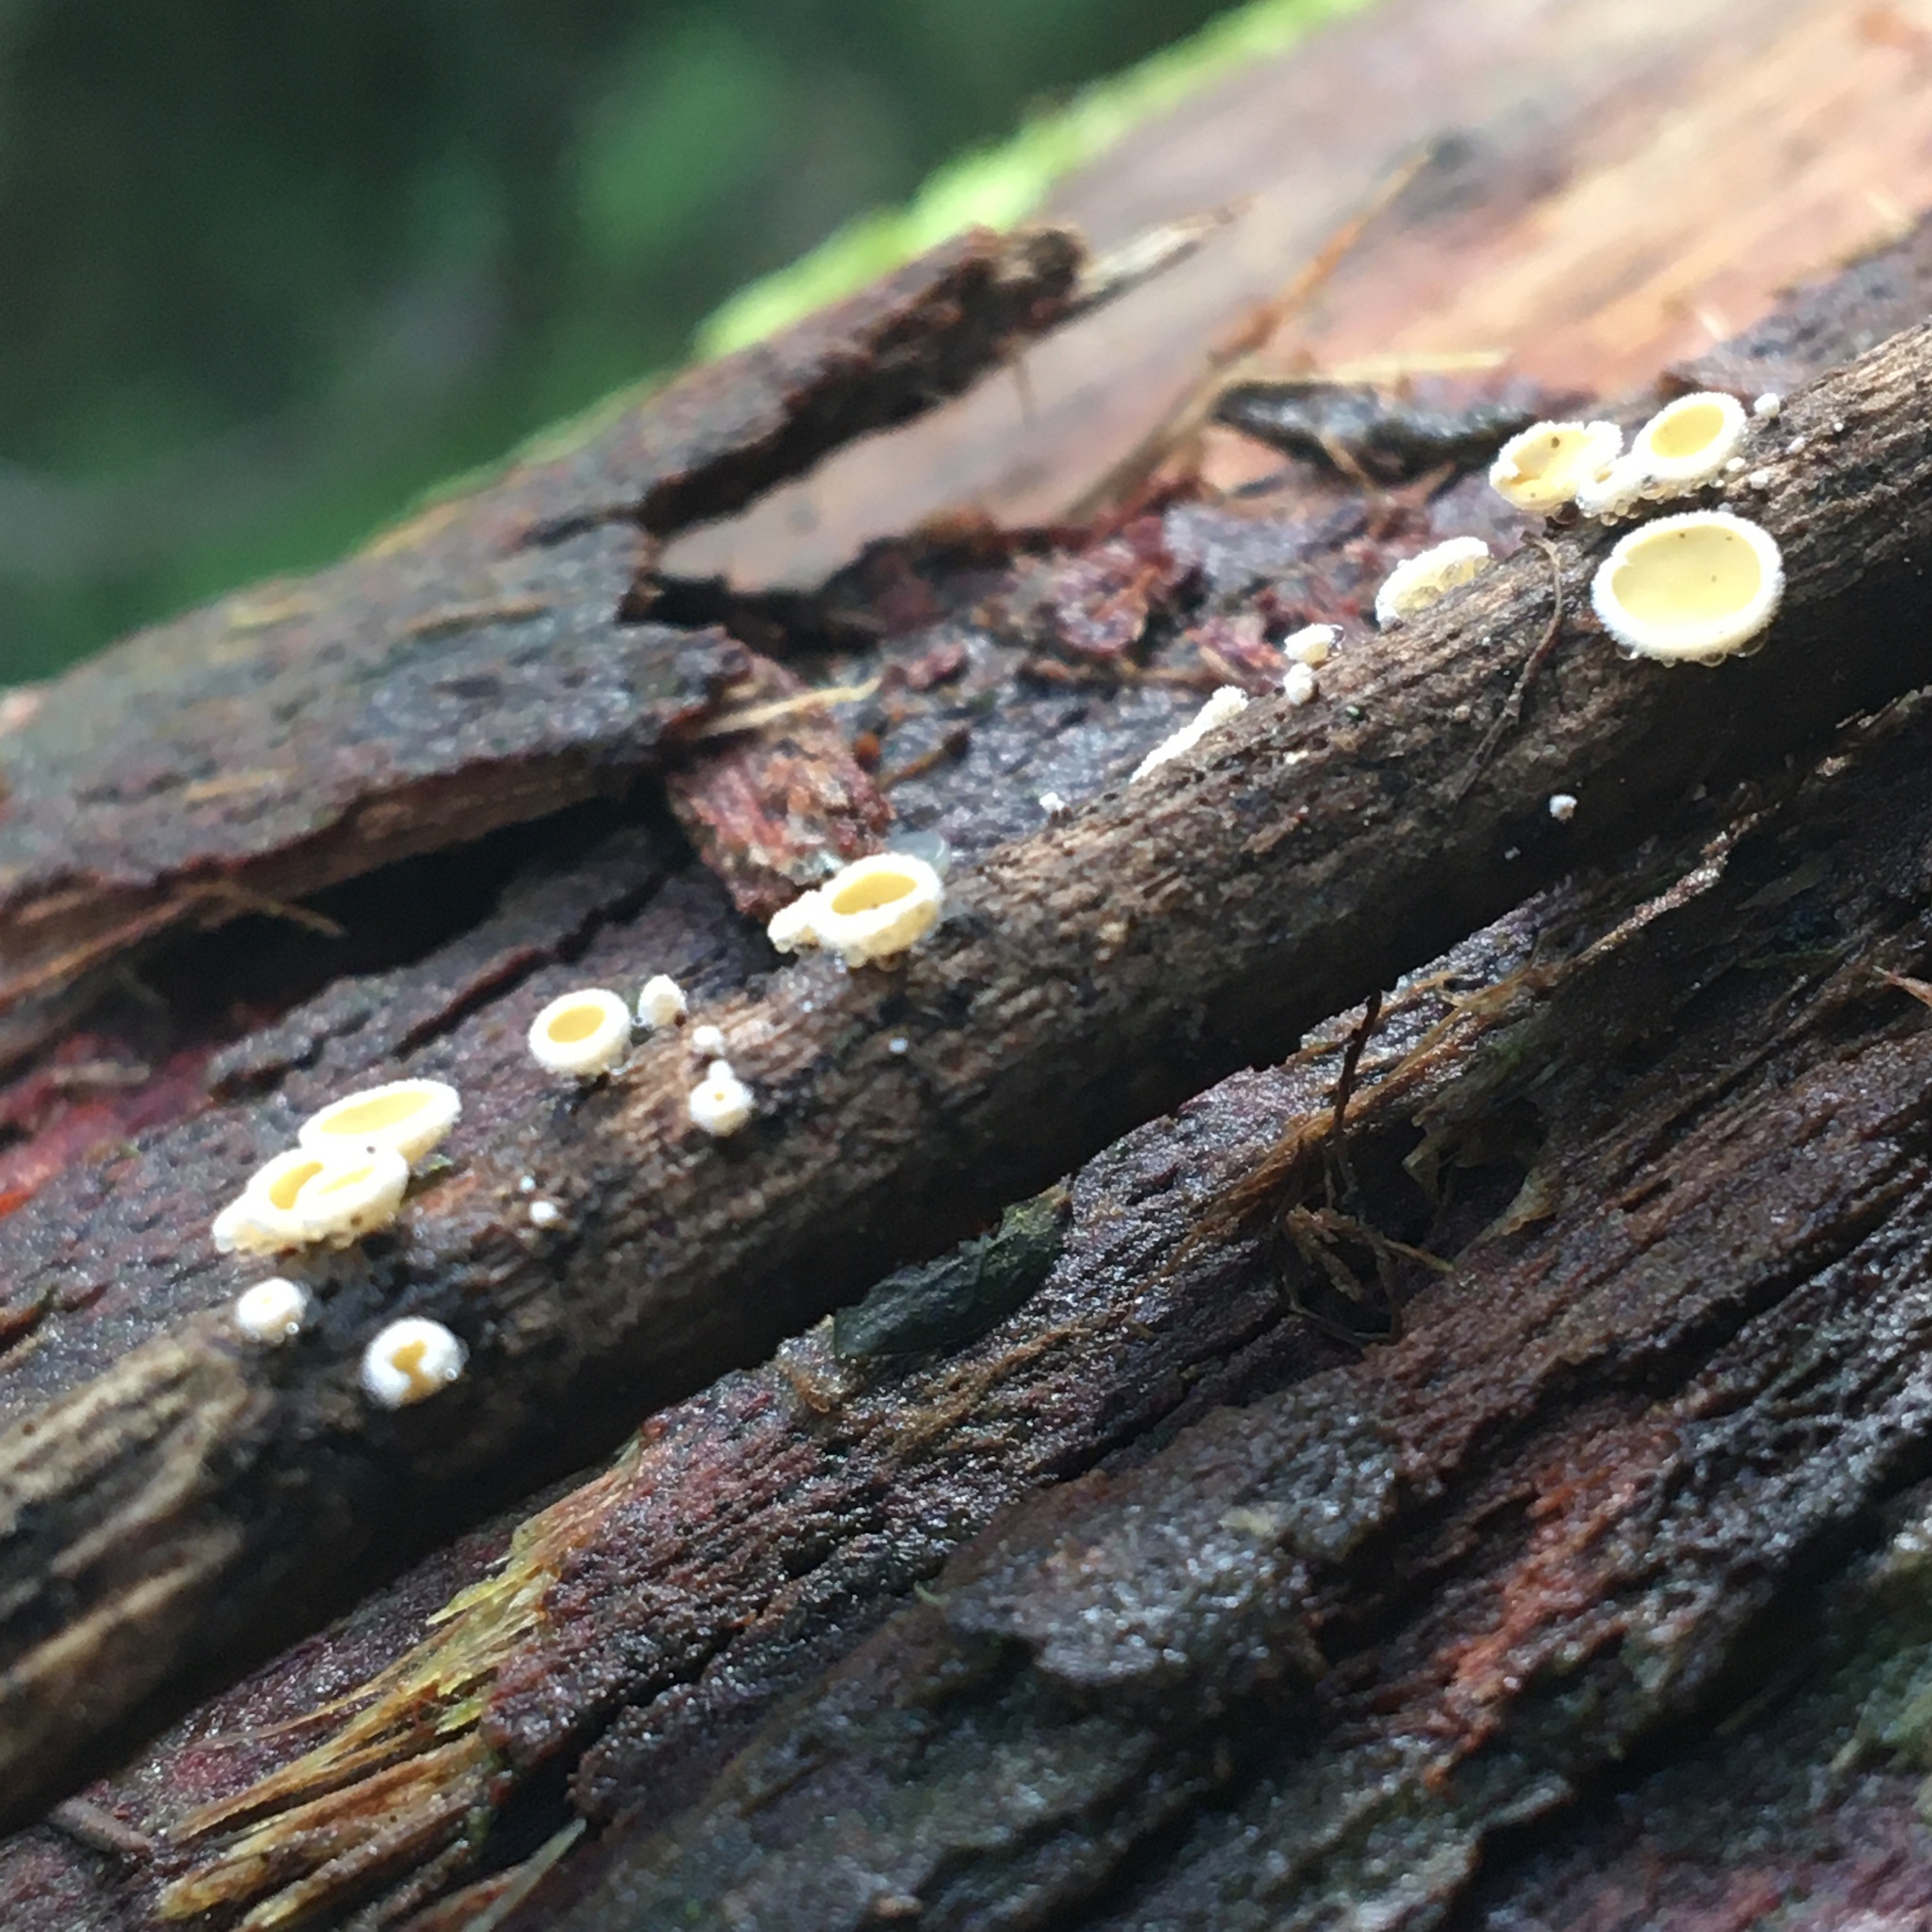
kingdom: Fungi
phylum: Ascomycota
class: Leotiomycetes
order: Helotiales
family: Lachnaceae
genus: Lachnum
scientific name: Lachnum lachnodermum
